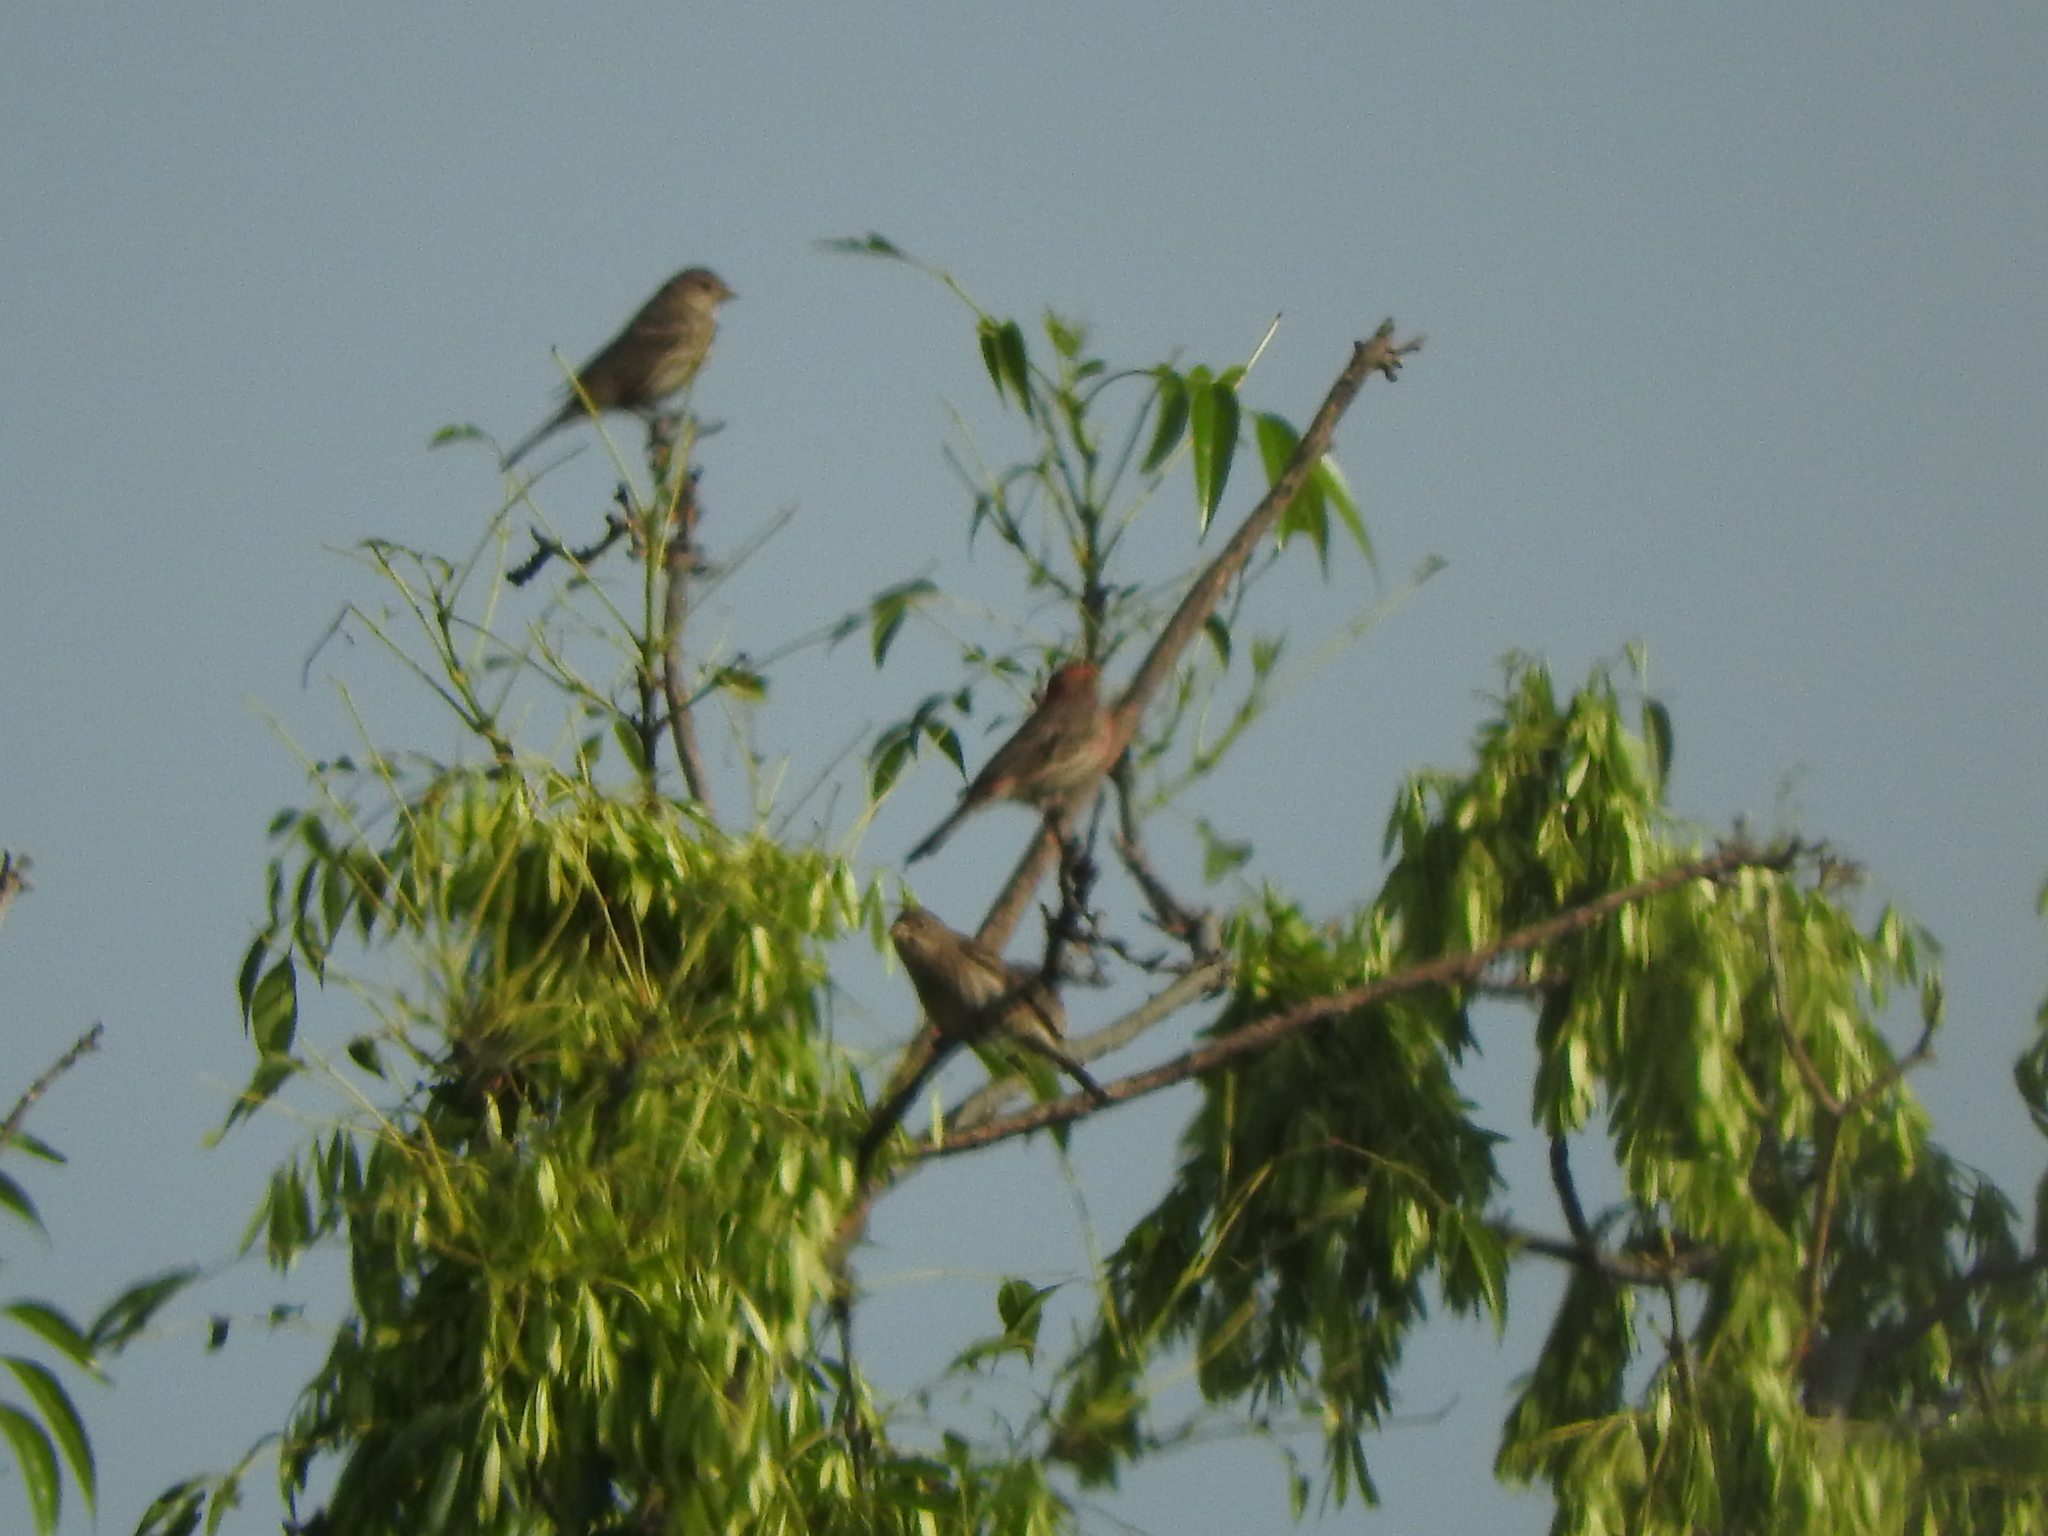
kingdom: Animalia
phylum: Chordata
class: Aves
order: Passeriformes
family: Fringillidae
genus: Haemorhous
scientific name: Haemorhous mexicanus
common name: House finch
